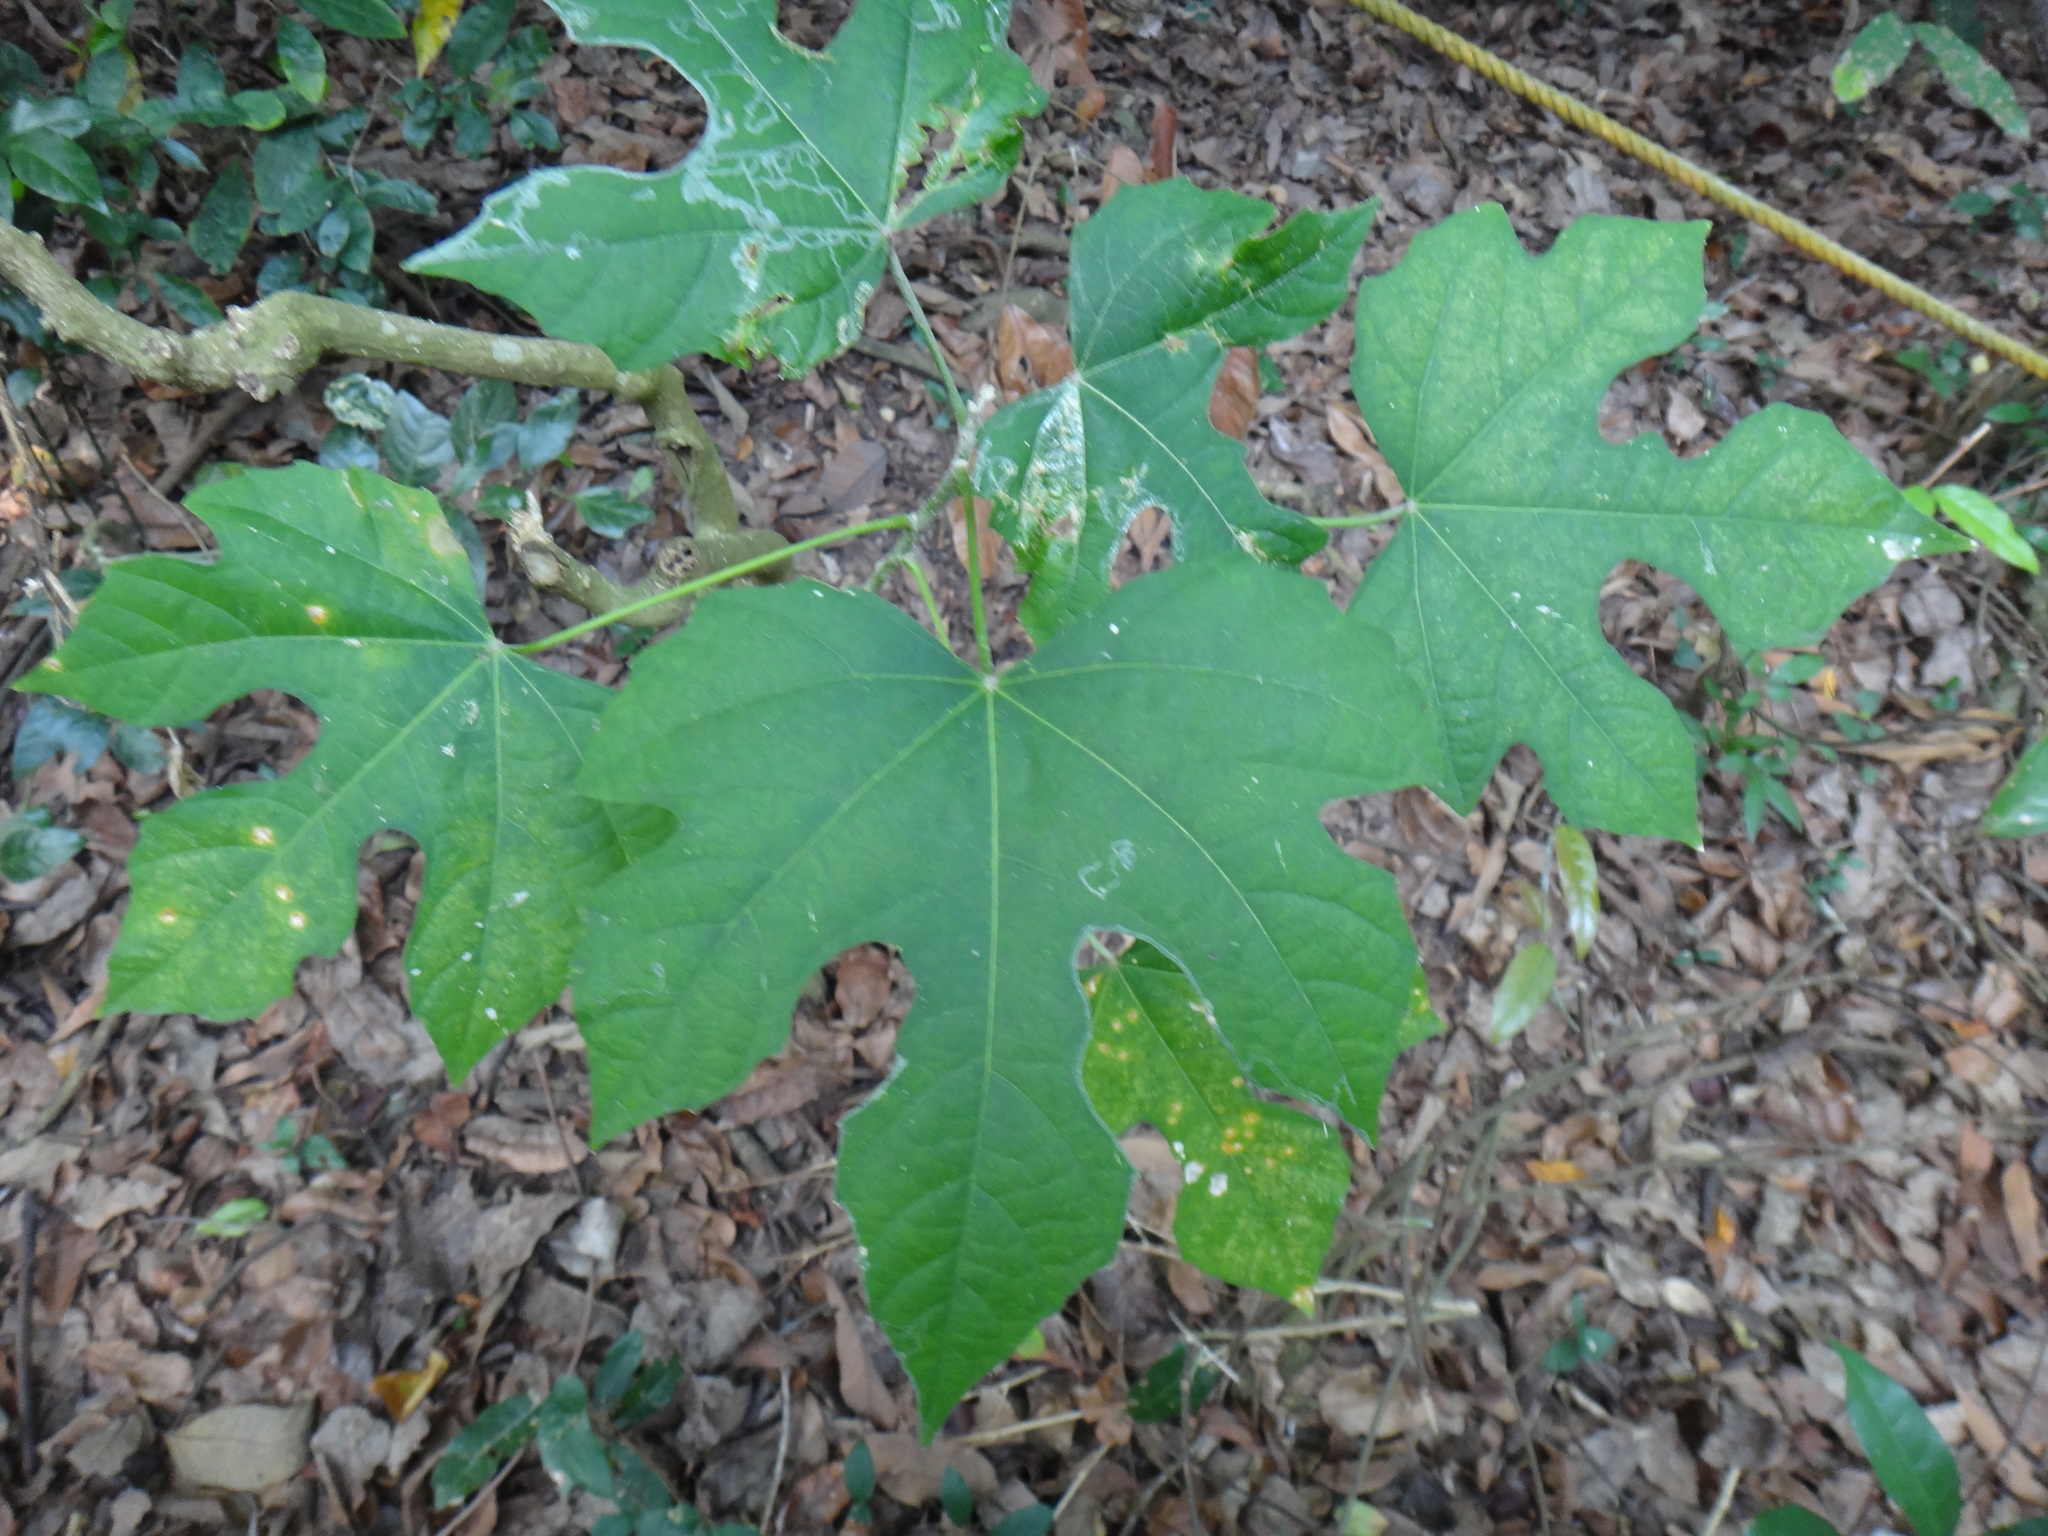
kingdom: Plantae
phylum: Tracheophyta
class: Magnoliopsida
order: Malpighiales
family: Euphorbiaceae
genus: Melanolepis
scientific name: Melanolepis multiglandulosa
